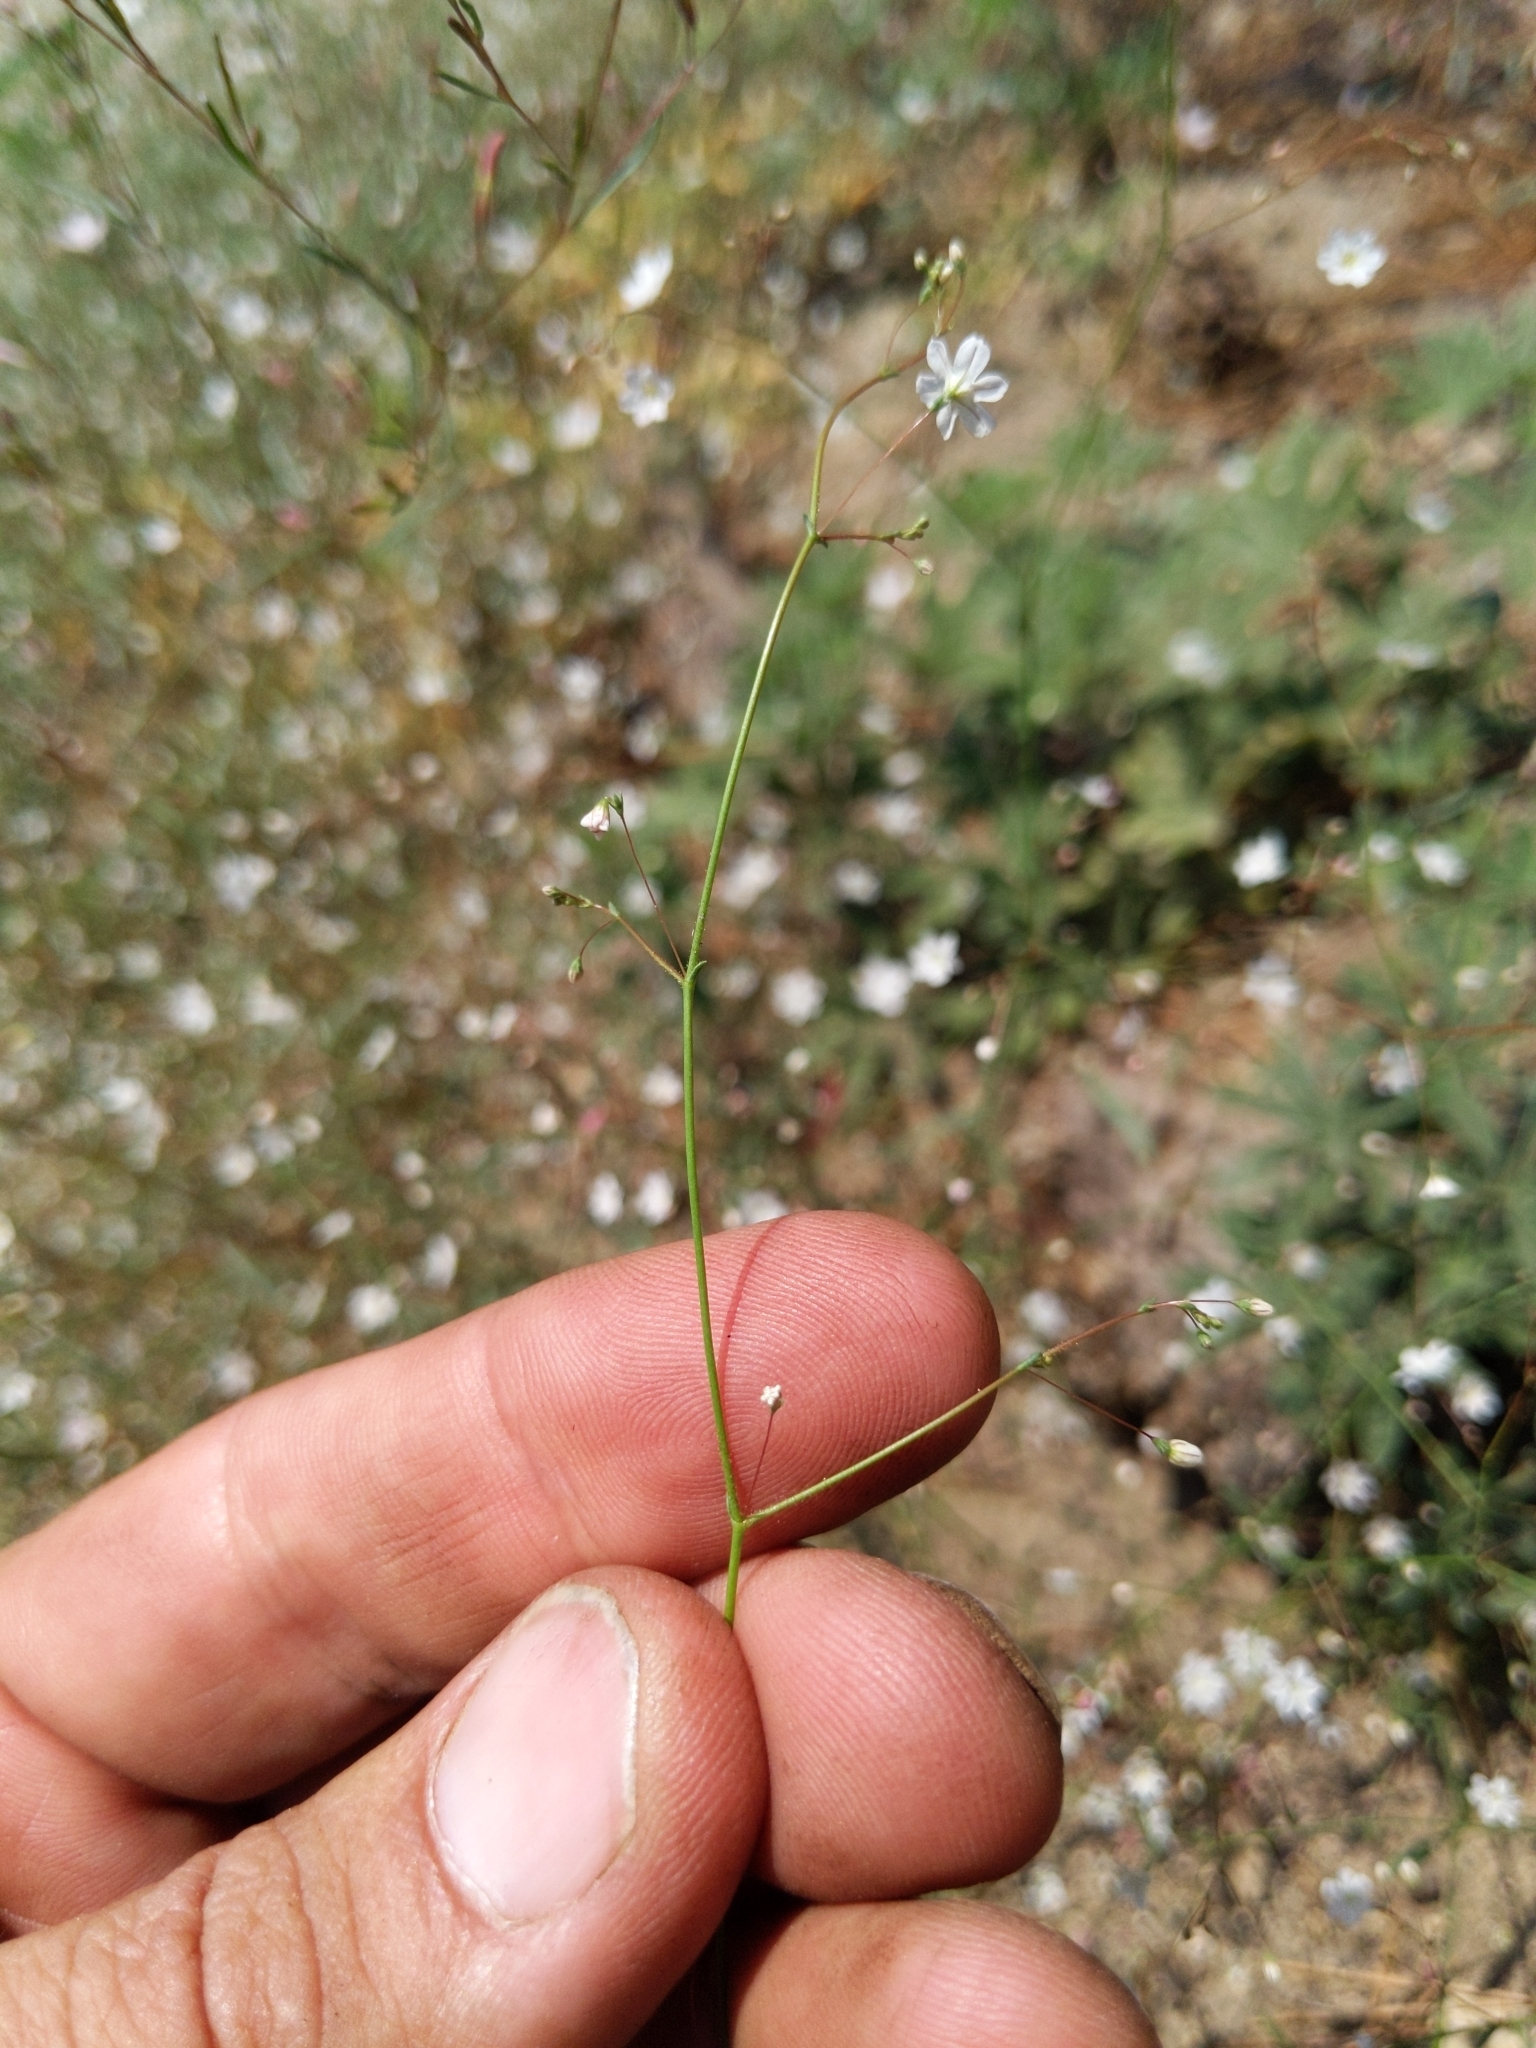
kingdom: Plantae
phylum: Tracheophyta
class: Magnoliopsida
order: Caryophyllales
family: Polygonaceae
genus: Eriogonum
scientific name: Eriogonum spergulinum
